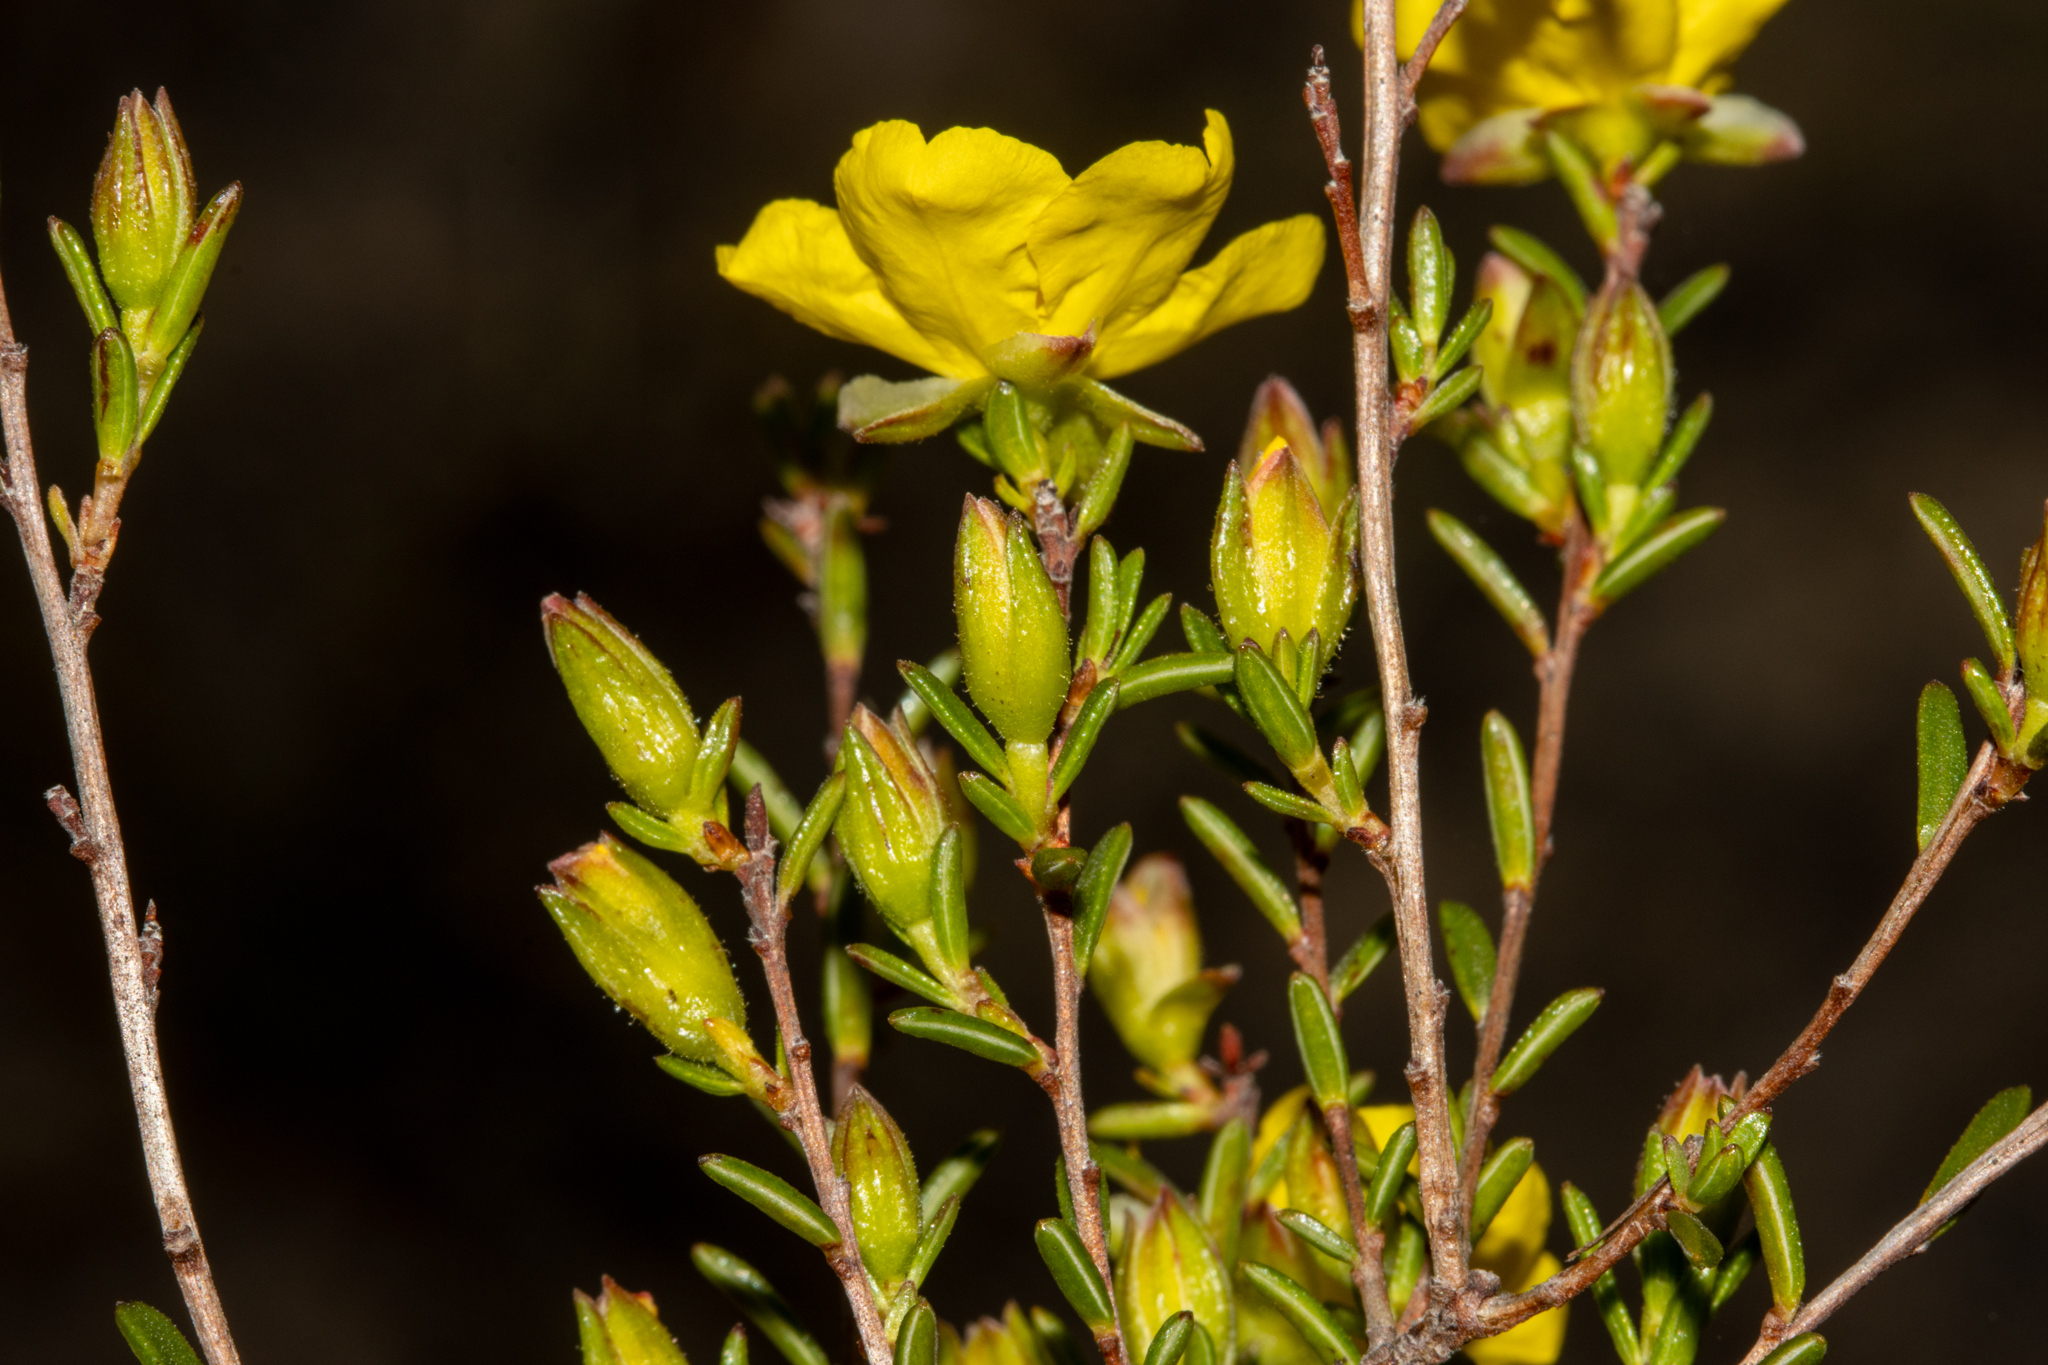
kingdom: Plantae
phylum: Tracheophyta
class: Magnoliopsida
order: Dilleniales
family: Dilleniaceae
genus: Hibbertia
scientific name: Hibbertia devitata
